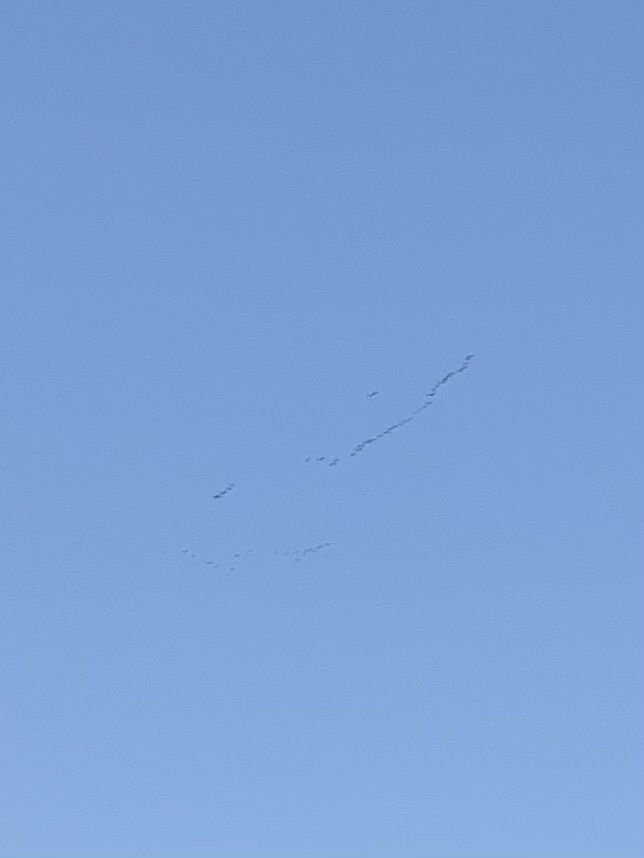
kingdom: Animalia
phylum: Chordata
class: Aves
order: Anseriformes
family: Anatidae
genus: Anser
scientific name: Anser anser
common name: Greylag goose
